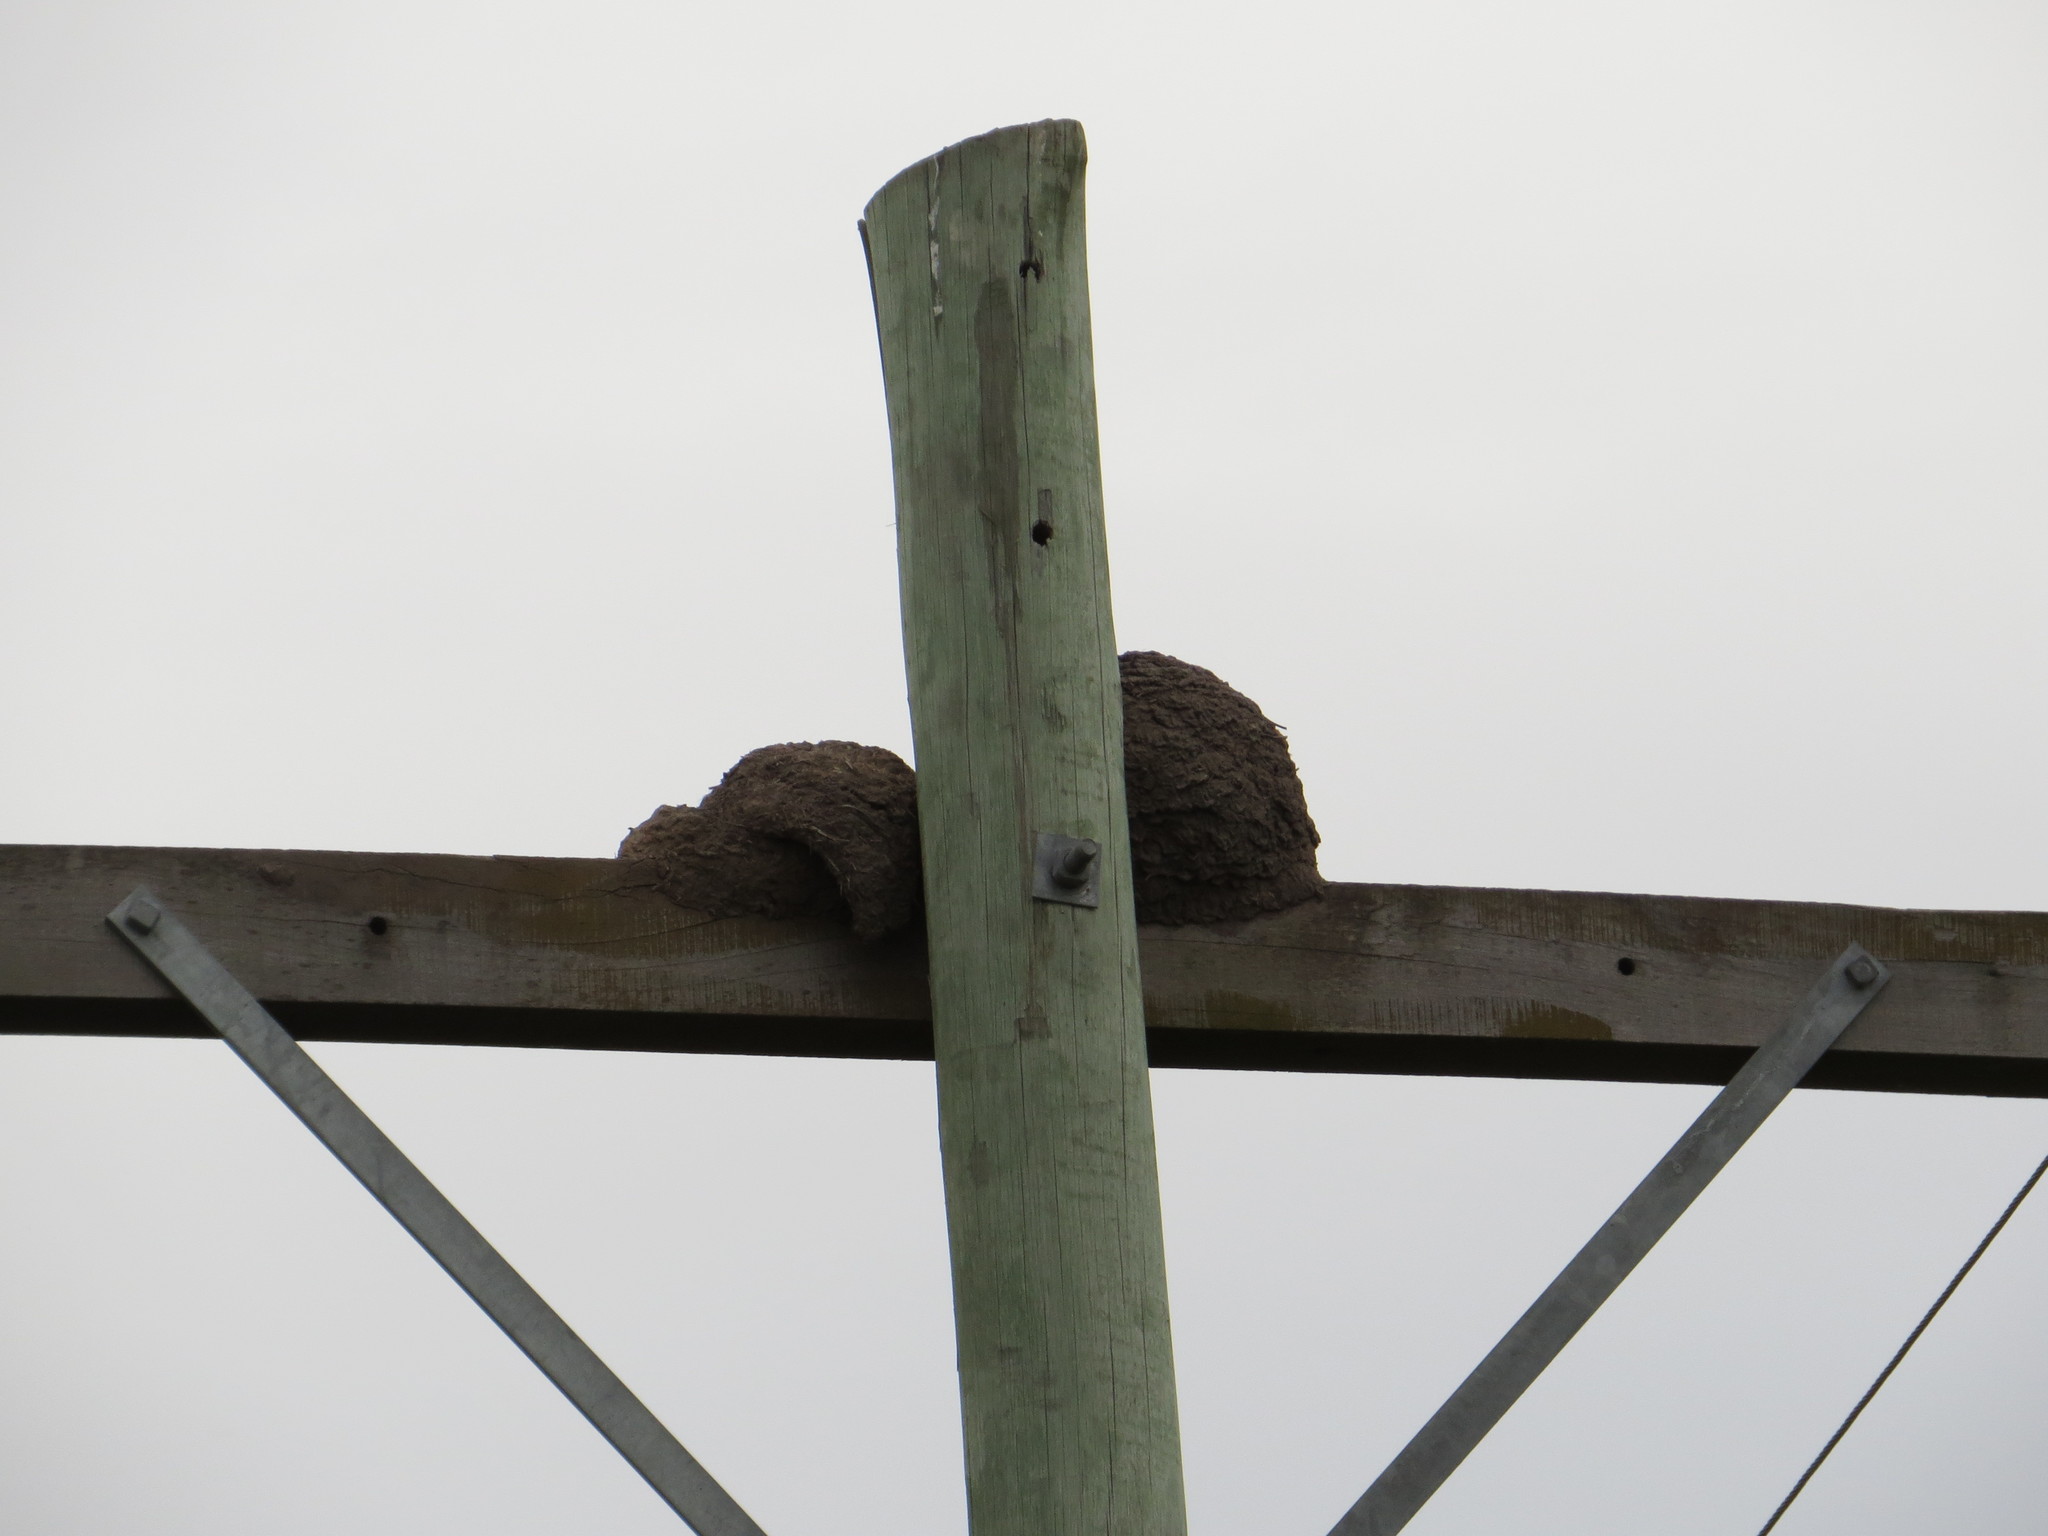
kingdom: Animalia
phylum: Chordata
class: Aves
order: Passeriformes
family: Furnariidae
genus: Furnarius
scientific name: Furnarius rufus
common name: Rufous hornero
